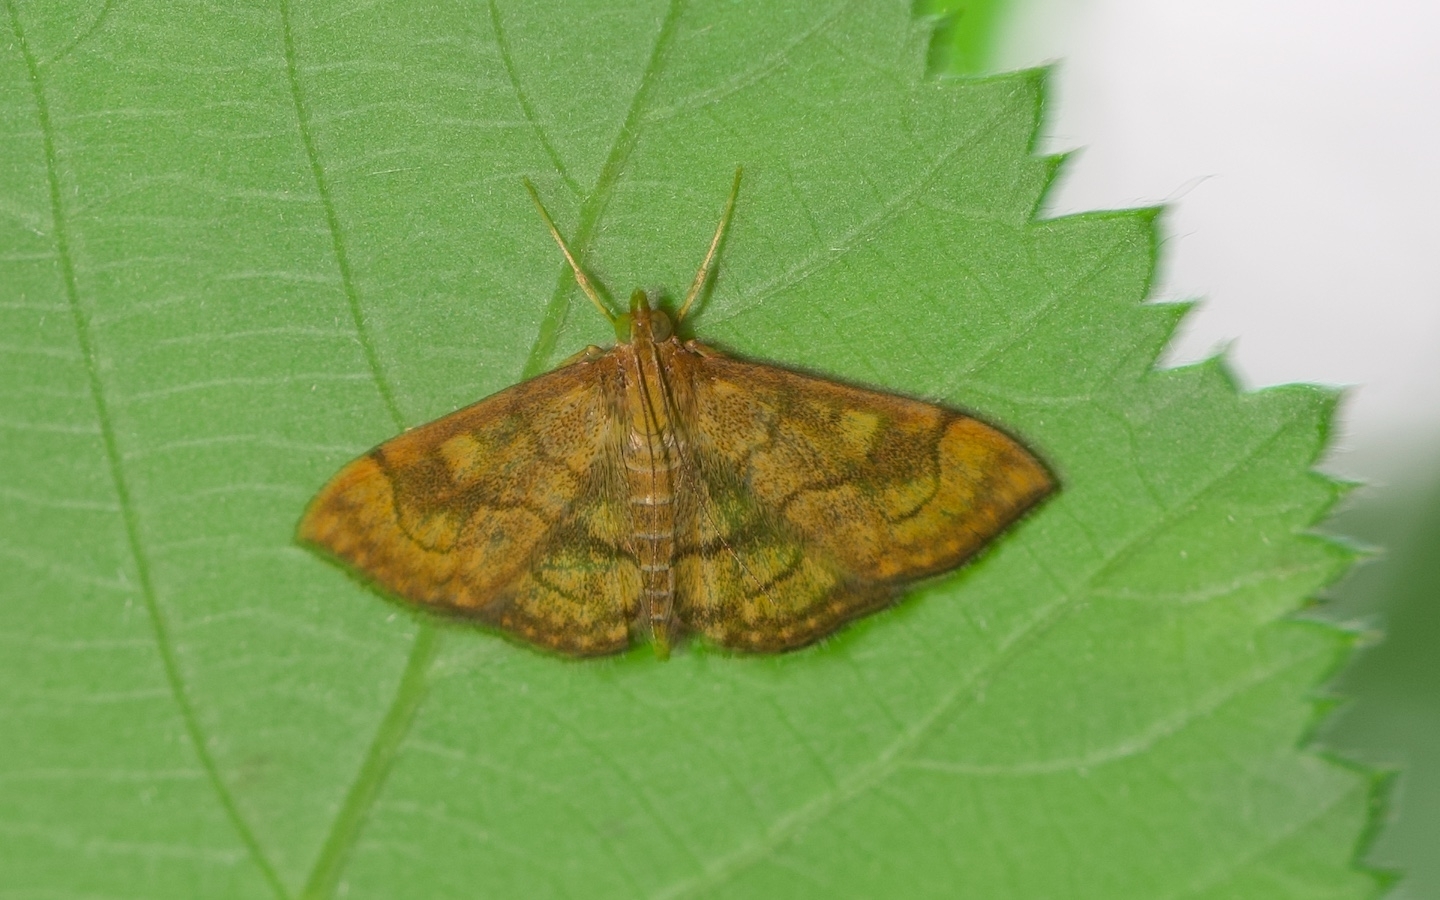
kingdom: Animalia
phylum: Arthropoda
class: Insecta
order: Lepidoptera
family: Crambidae
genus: Anania
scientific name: Anania verbascalis
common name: Golden pearl
